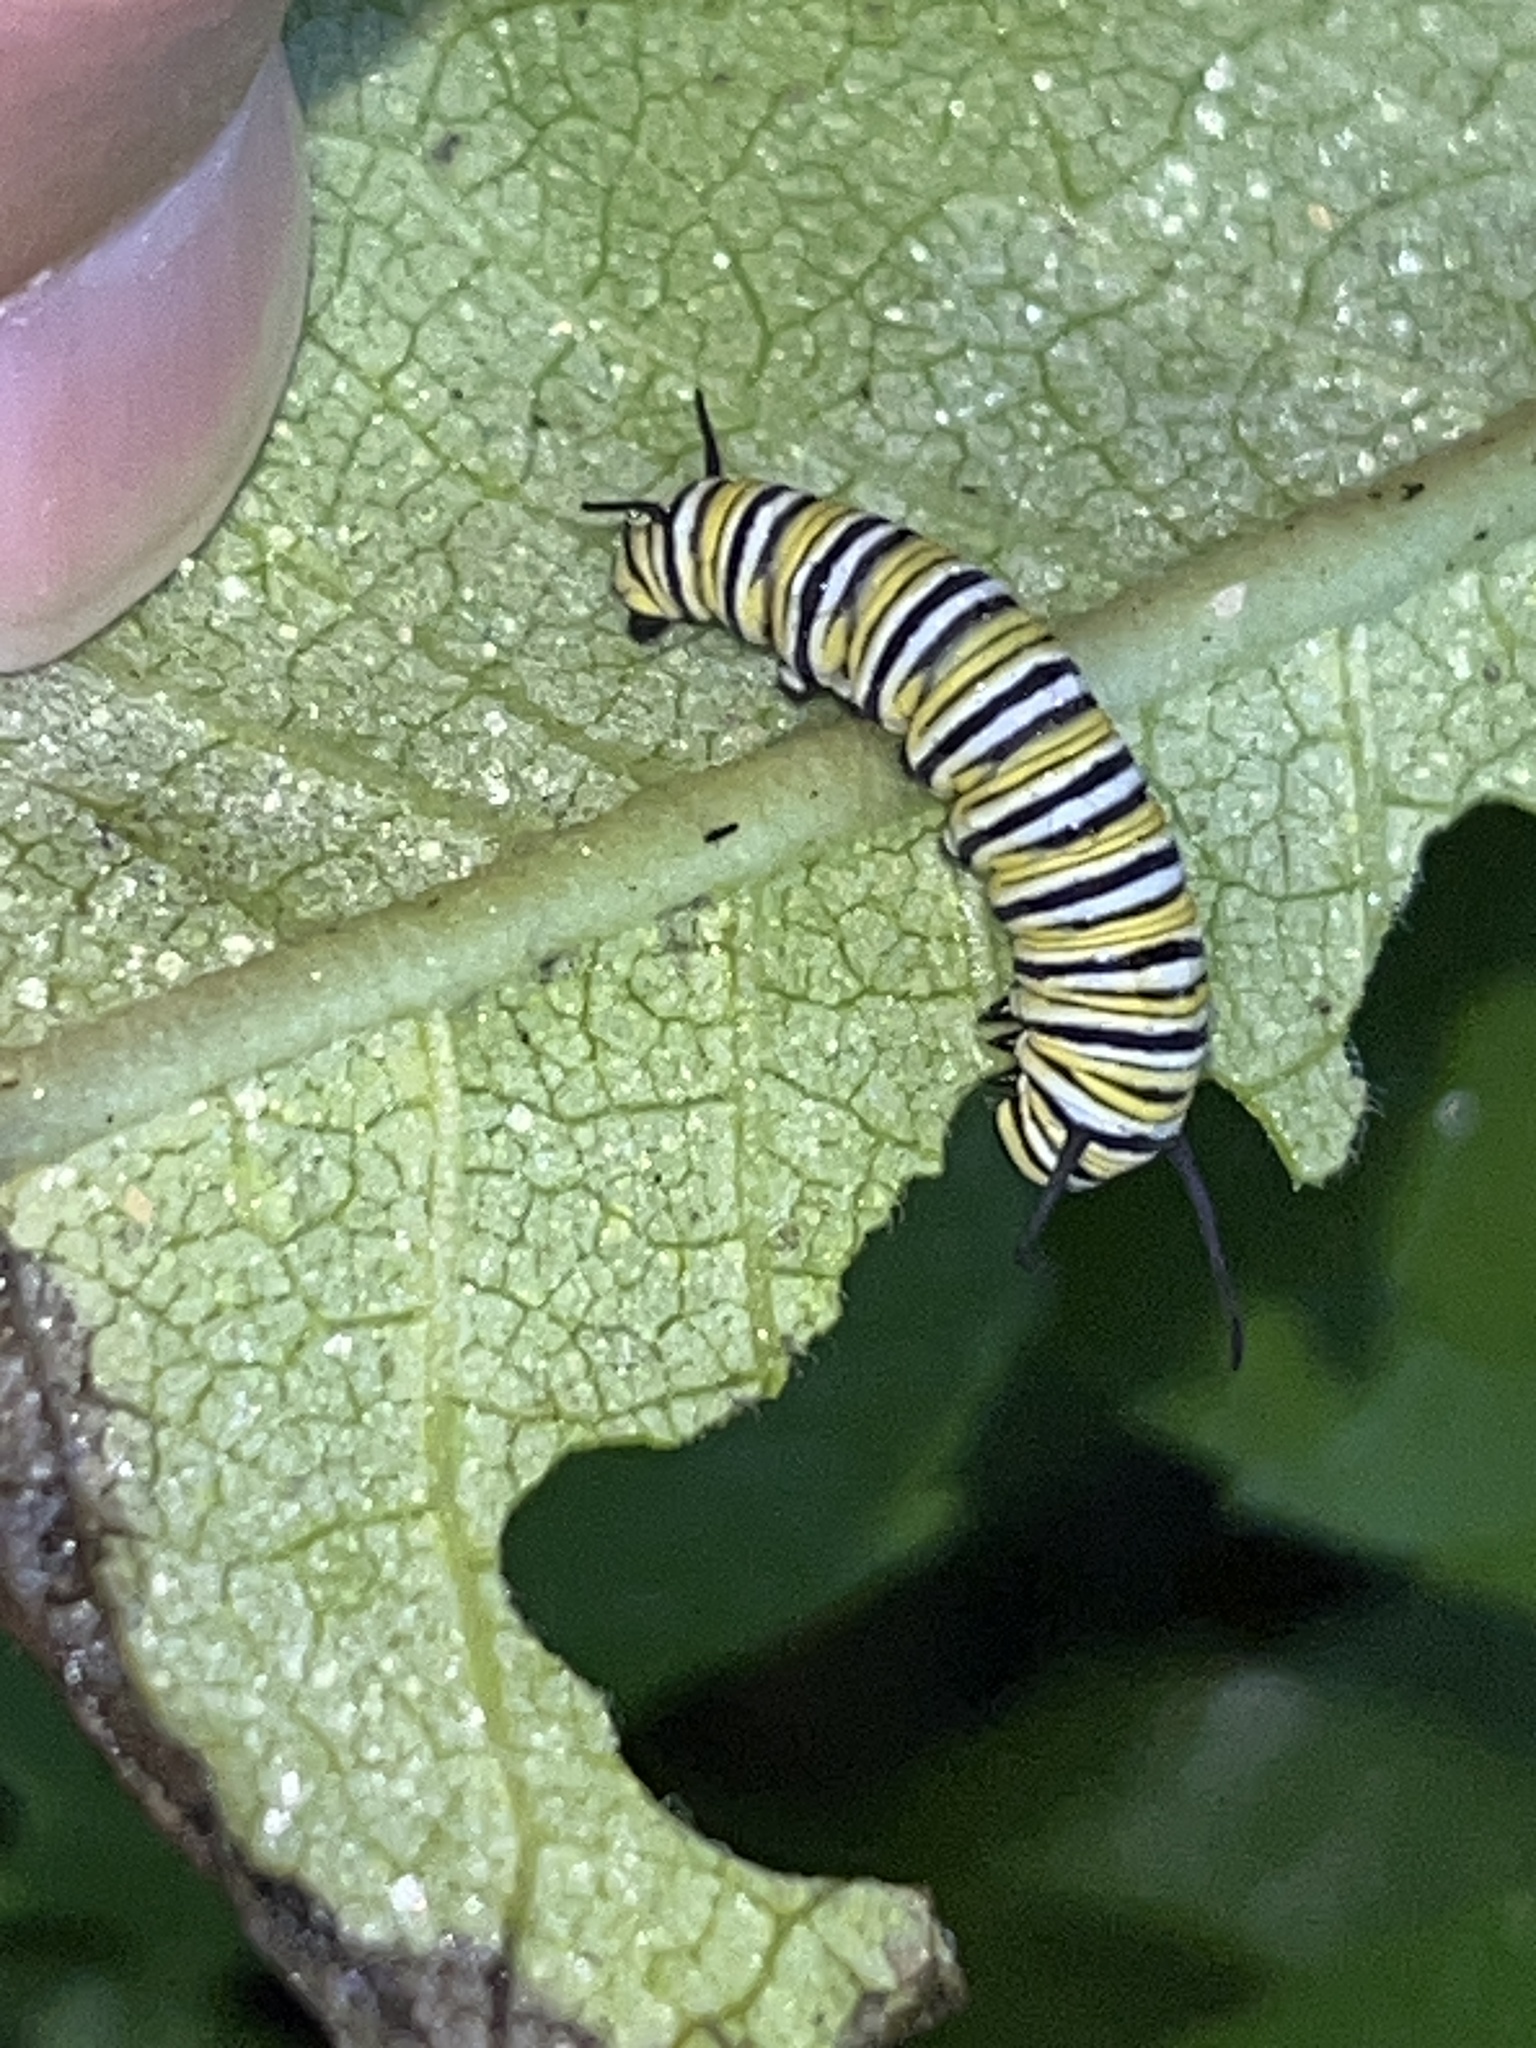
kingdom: Animalia
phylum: Arthropoda
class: Insecta
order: Lepidoptera
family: Nymphalidae
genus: Danaus
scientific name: Danaus plexippus
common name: Monarch
